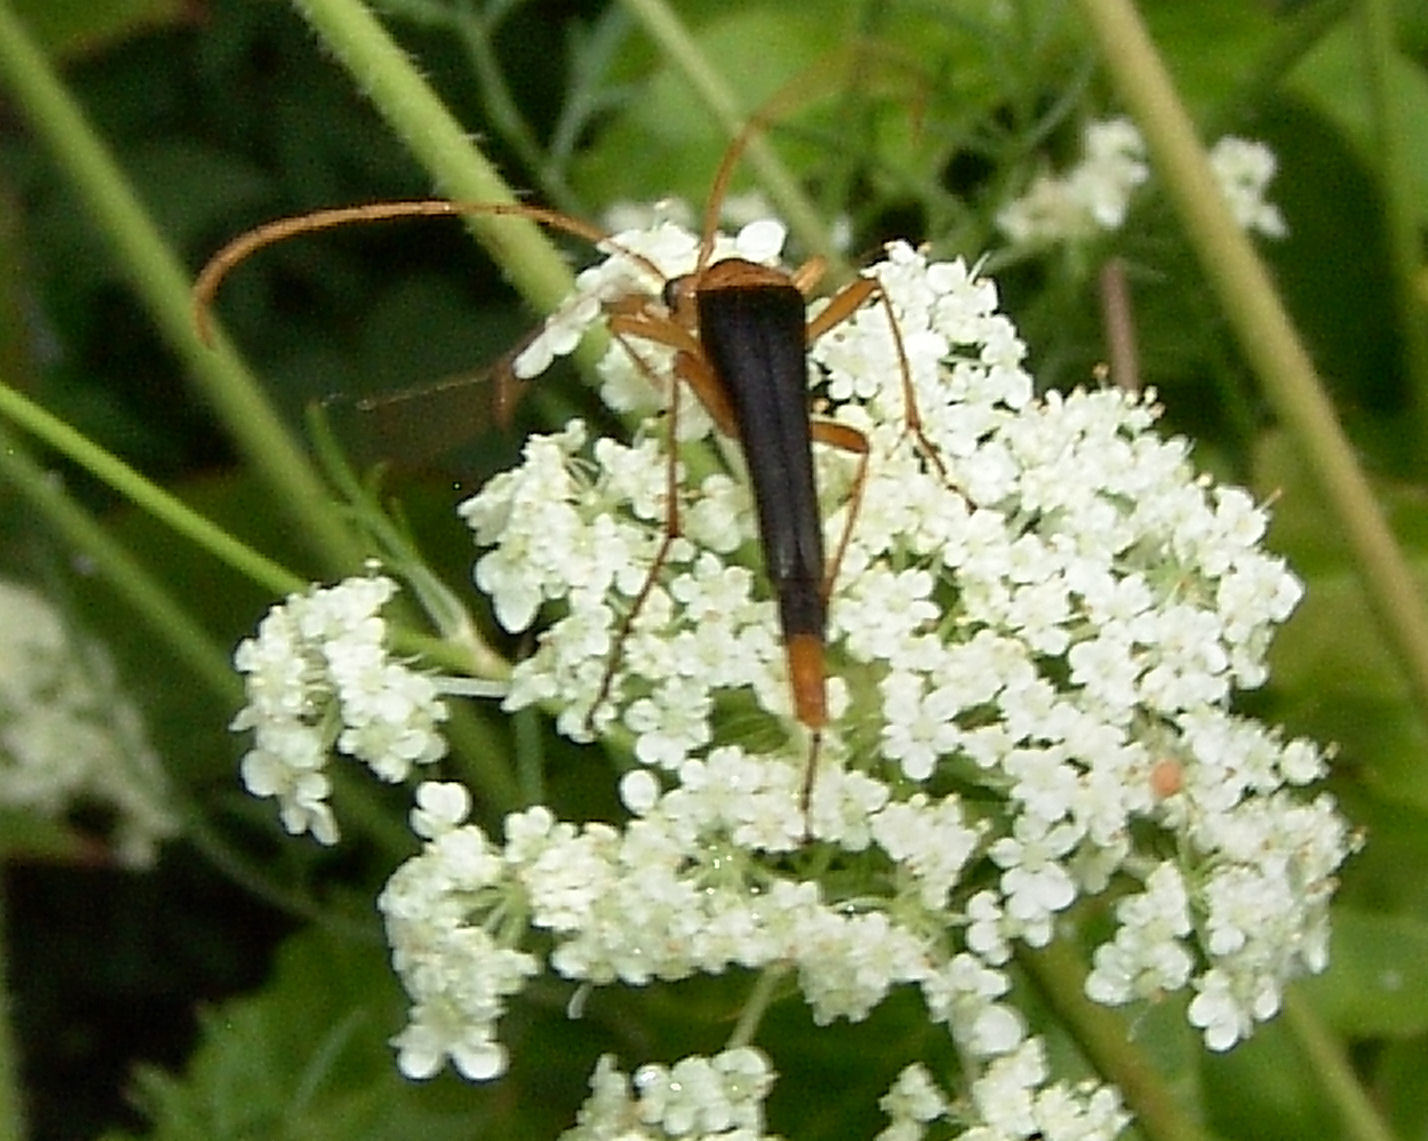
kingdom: Animalia
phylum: Arthropoda
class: Insecta
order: Coleoptera
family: Cerambycidae
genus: Strangalia
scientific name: Strangalia bicolor
